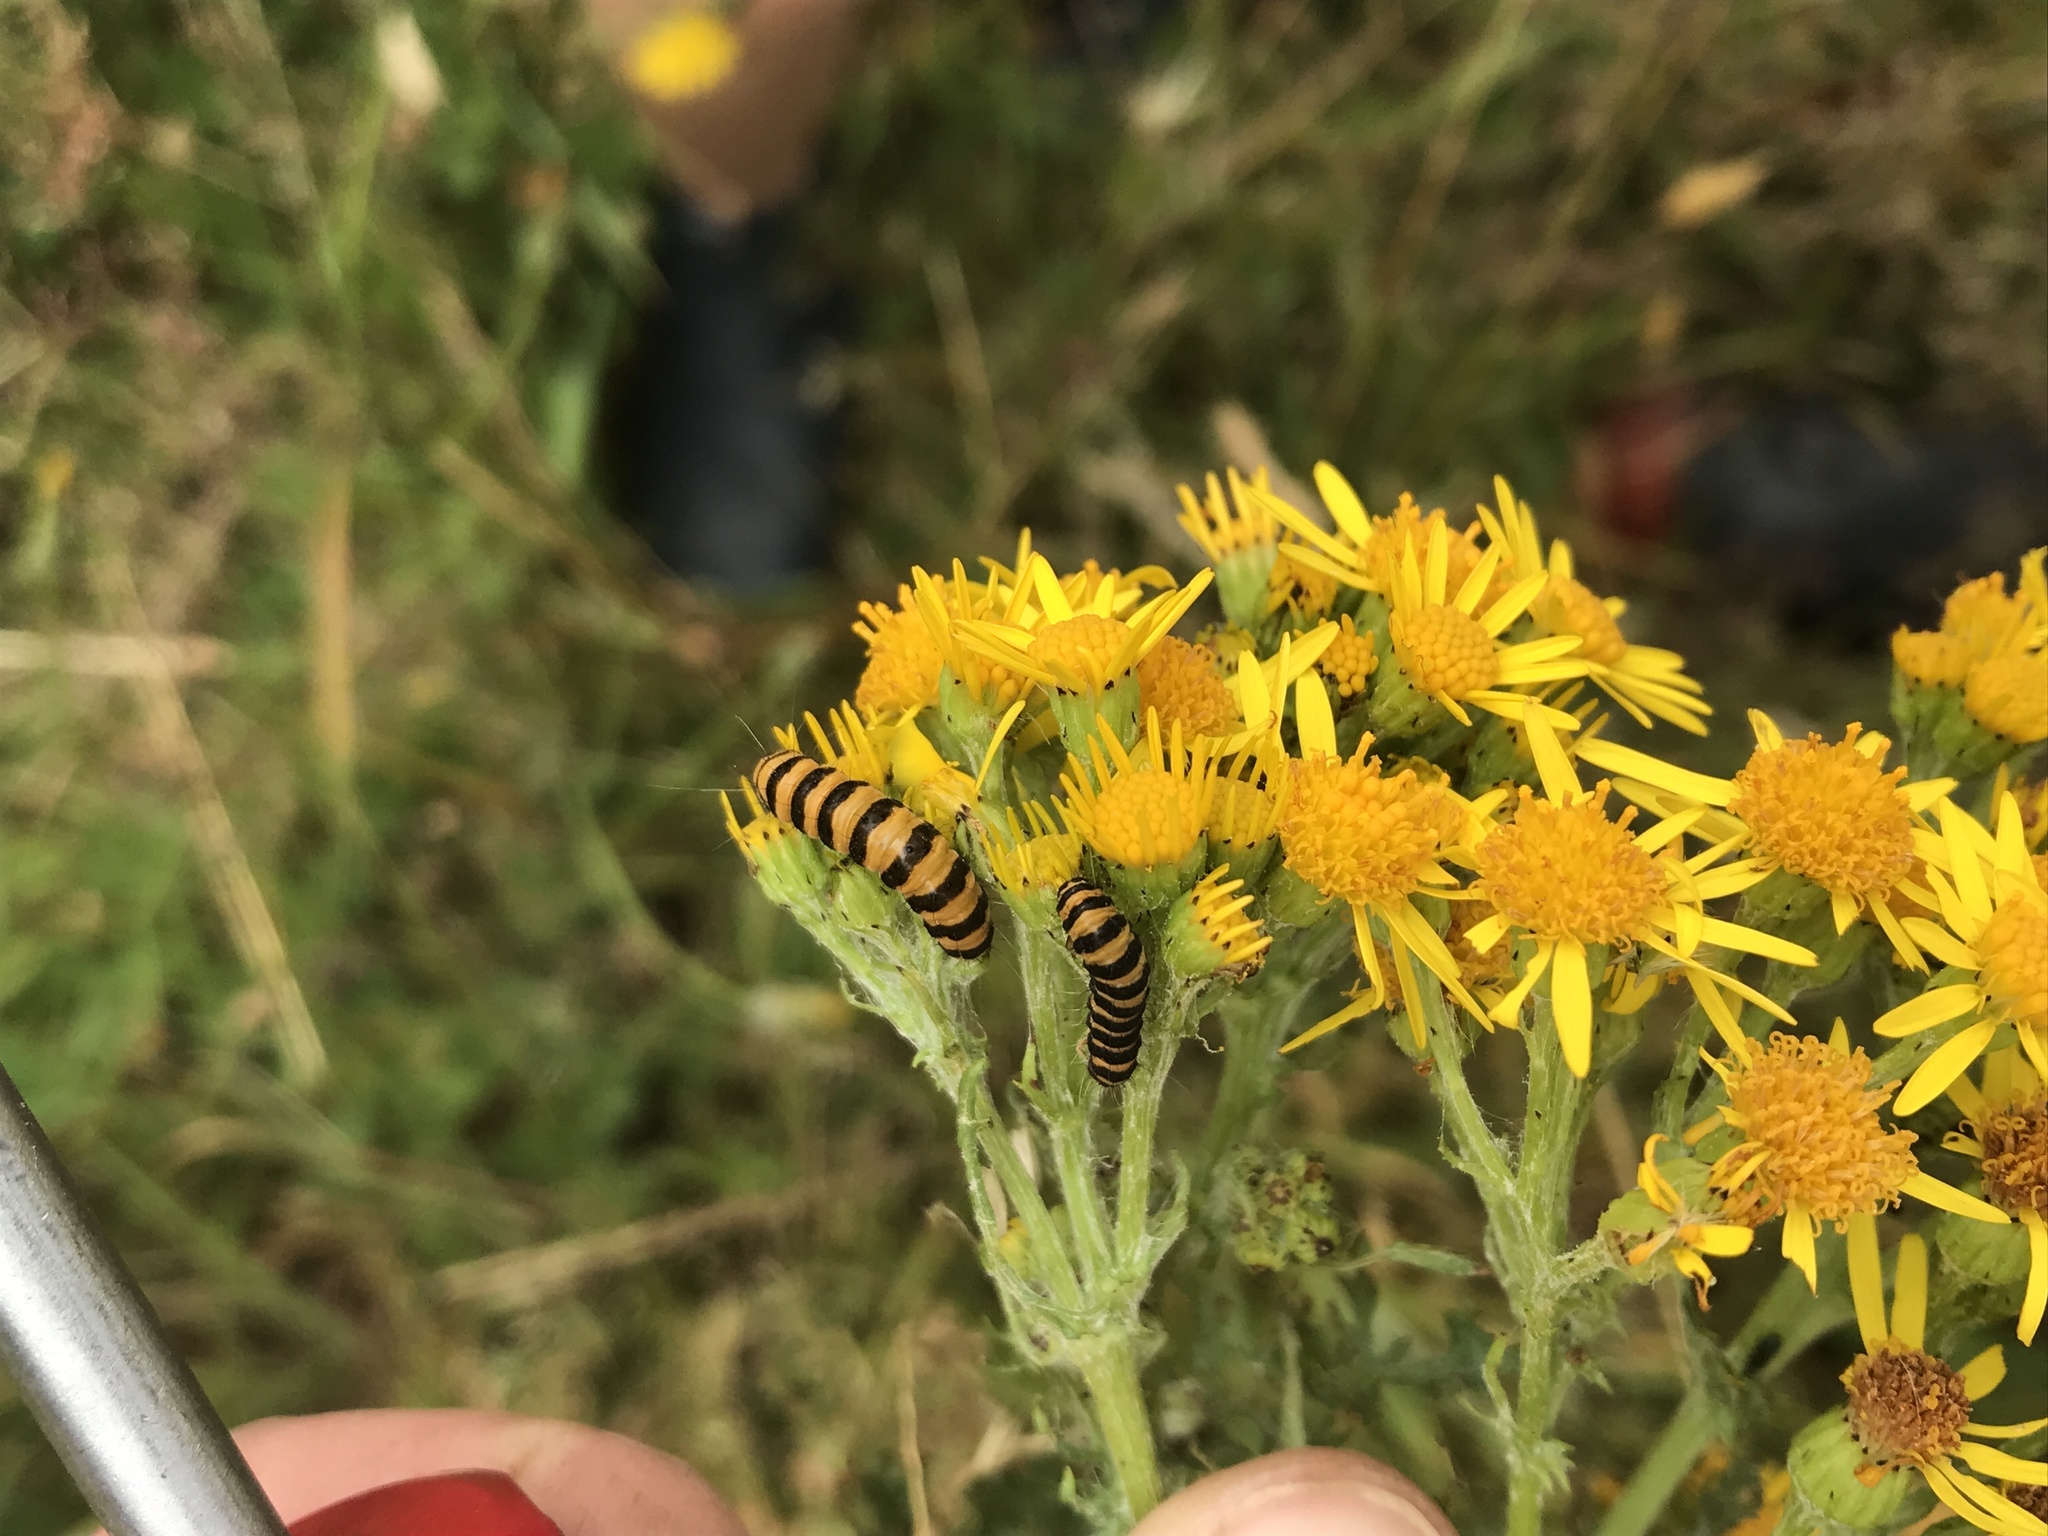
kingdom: Animalia
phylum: Arthropoda
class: Insecta
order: Lepidoptera
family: Erebidae
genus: Tyria
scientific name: Tyria jacobaeae
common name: Cinnabar
